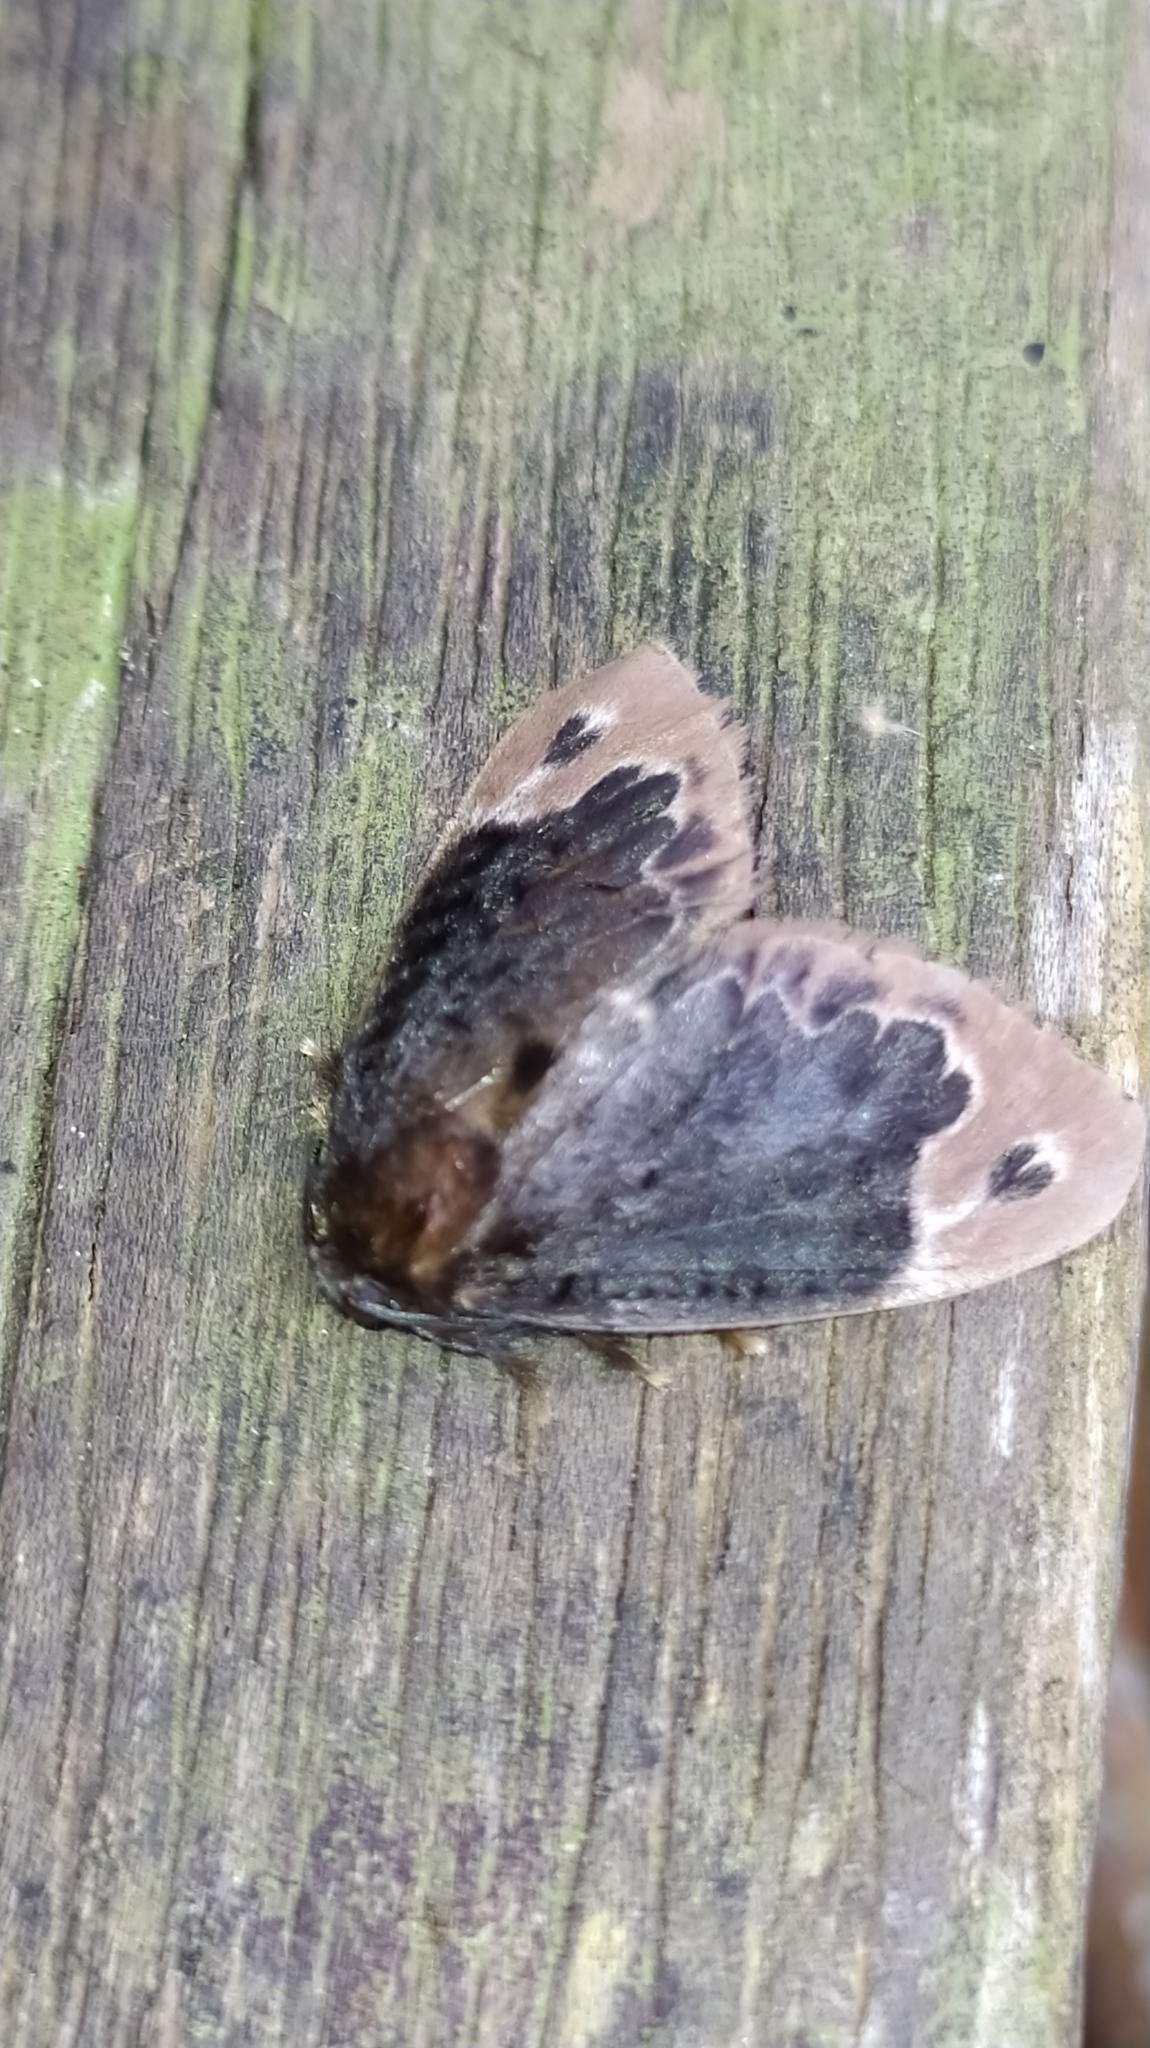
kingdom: Animalia
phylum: Arthropoda
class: Insecta
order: Lepidoptera
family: Megalopygidae
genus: Podalia
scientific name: Podalia amarga
